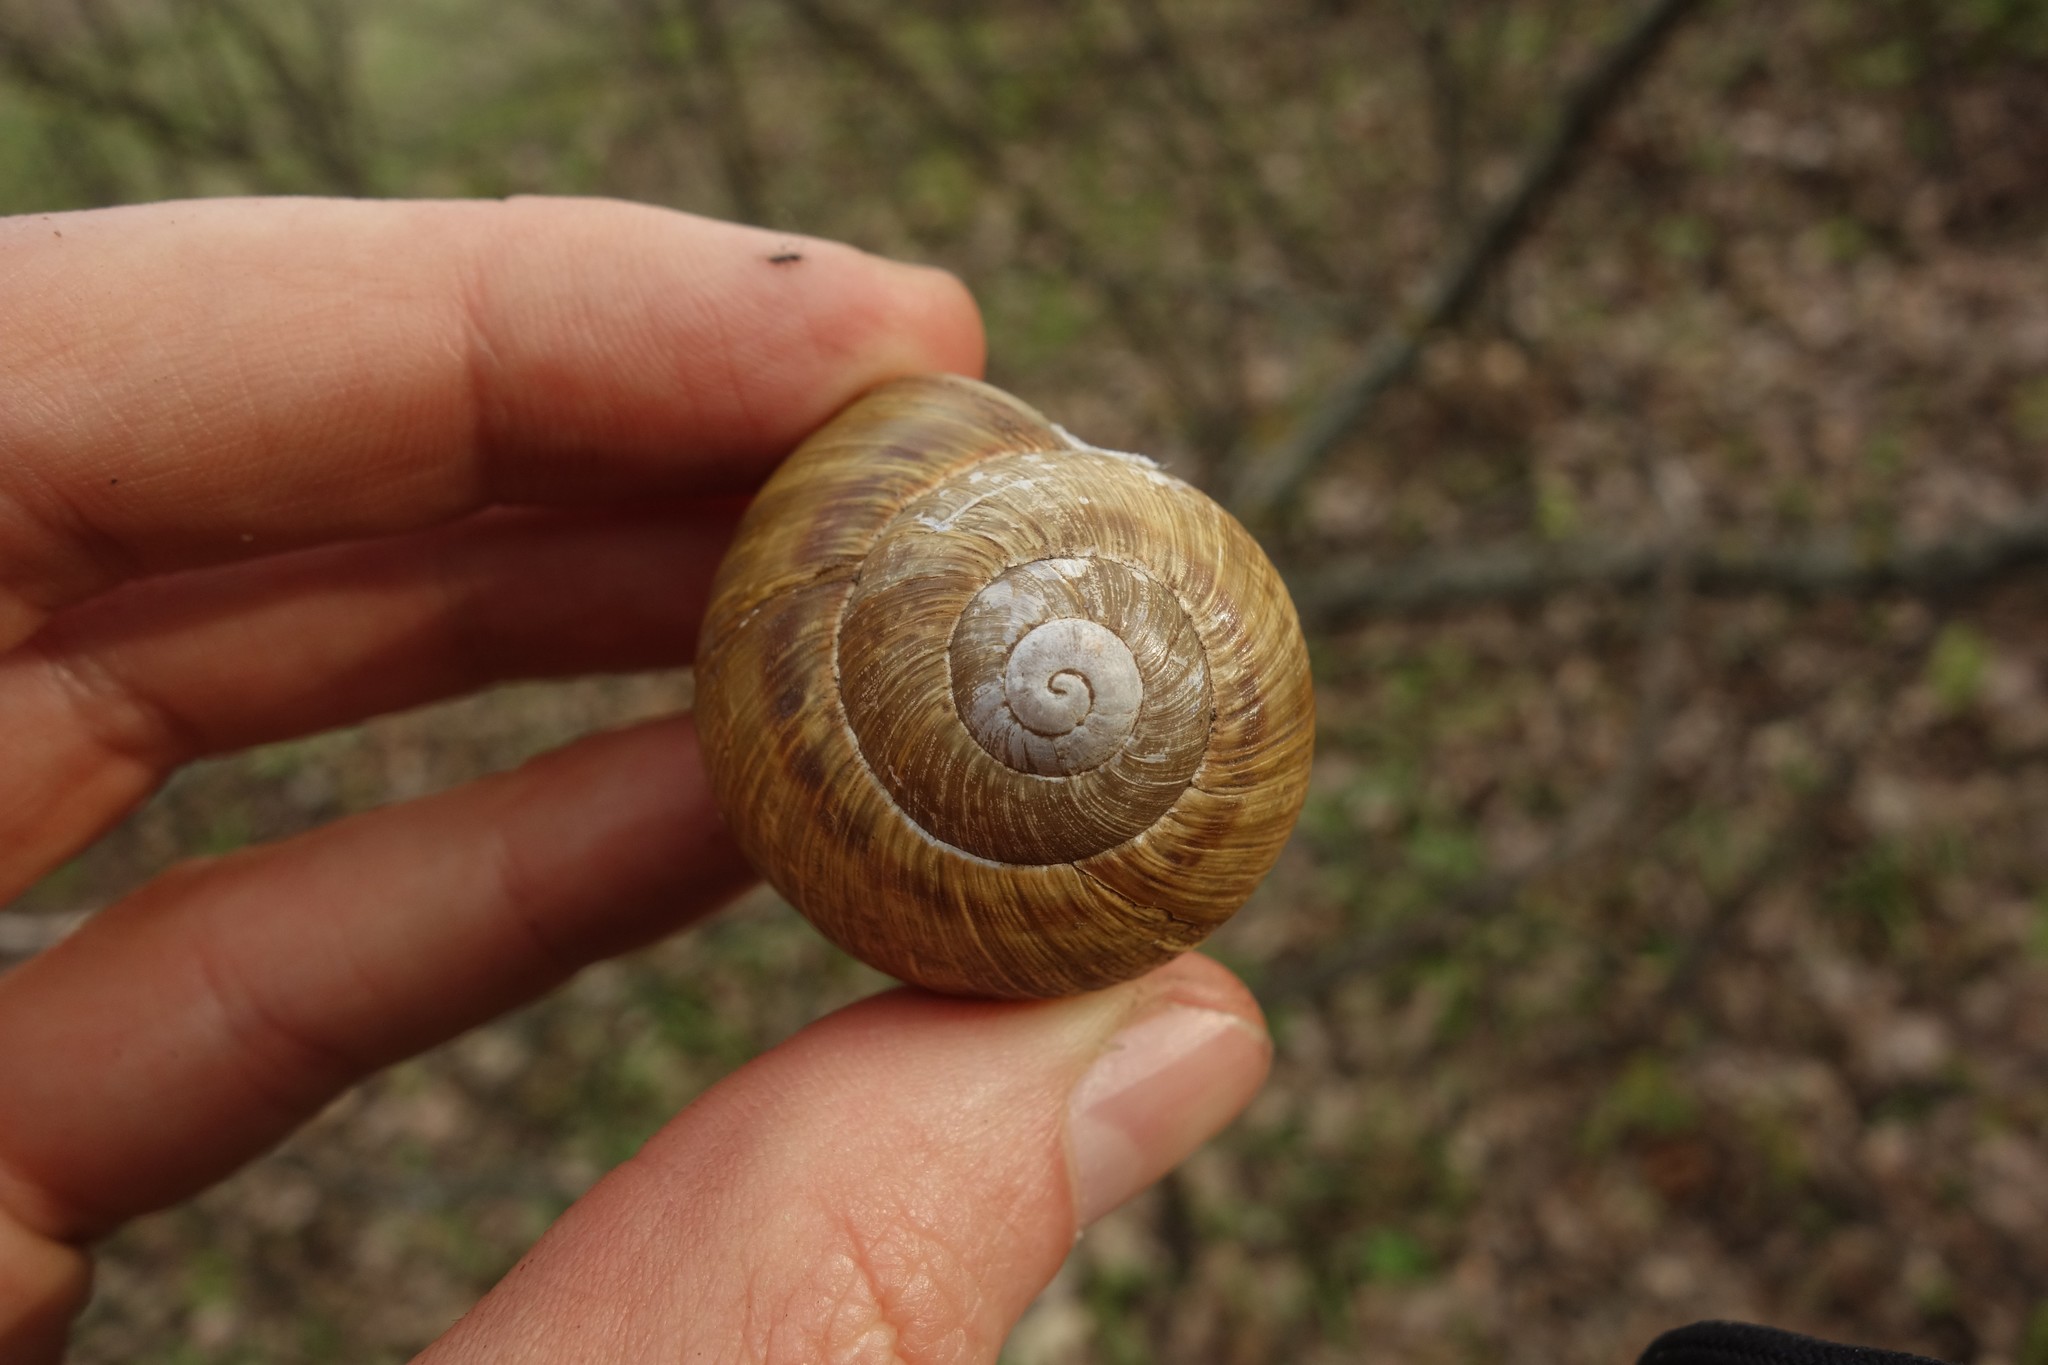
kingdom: Animalia
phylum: Mollusca
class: Gastropoda
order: Stylommatophora
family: Helicidae
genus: Helix
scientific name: Helix thessalica
